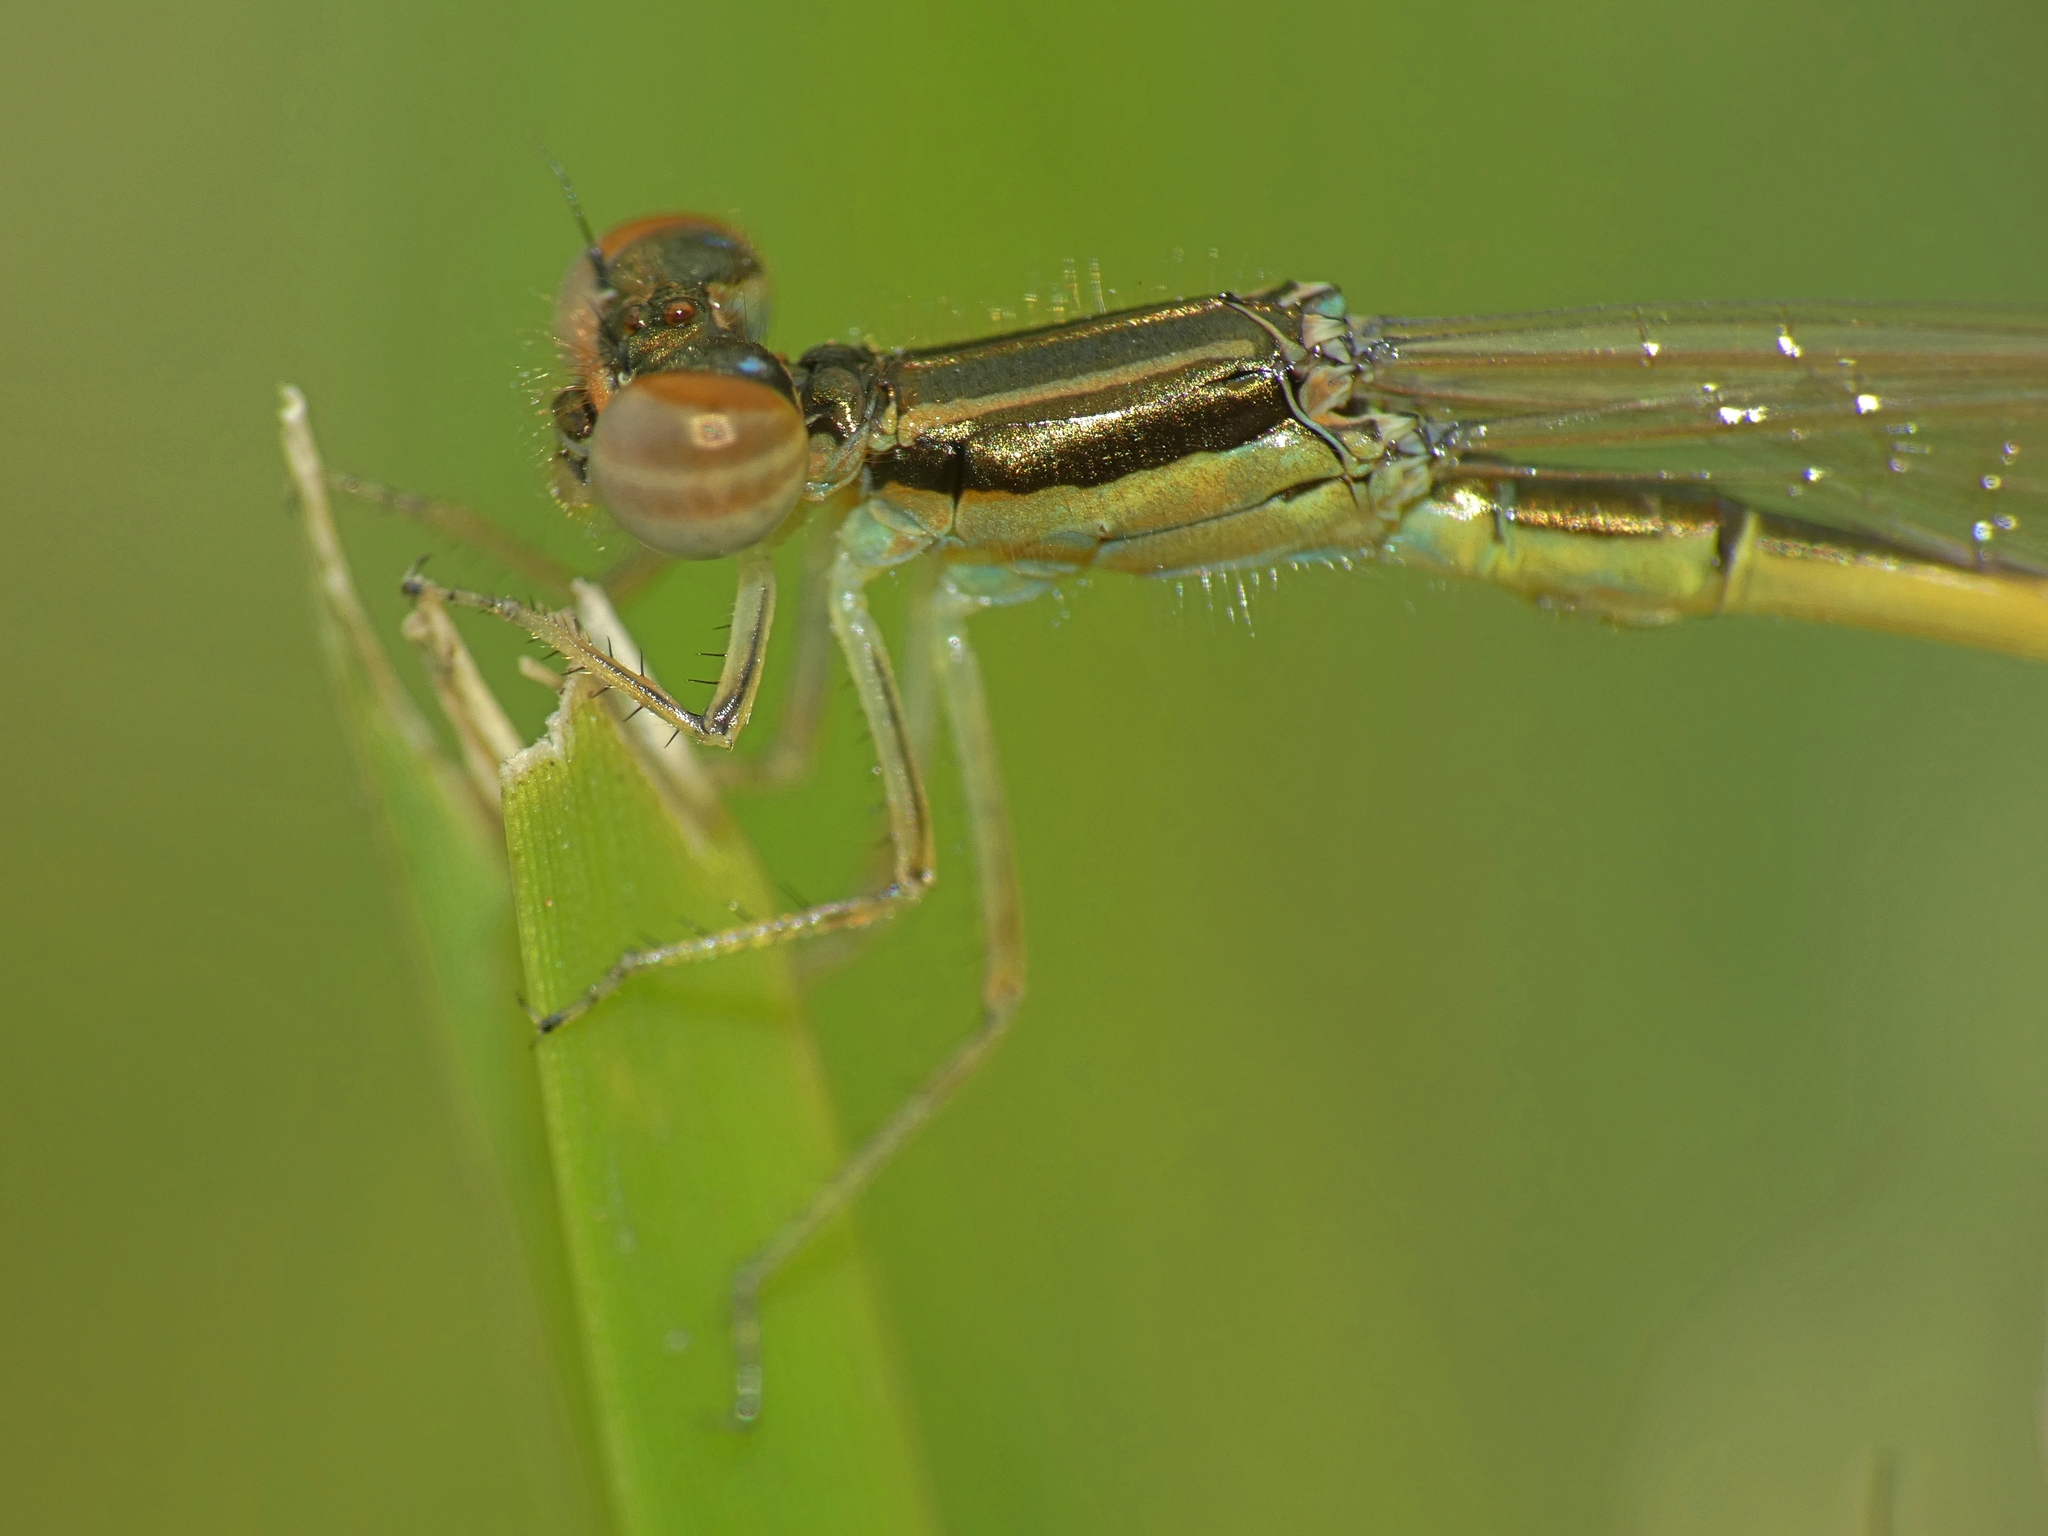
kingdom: Animalia
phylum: Arthropoda
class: Insecta
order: Odonata
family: Coenagrionidae
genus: Ischnura
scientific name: Ischnura hastata
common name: Citrine forktail
